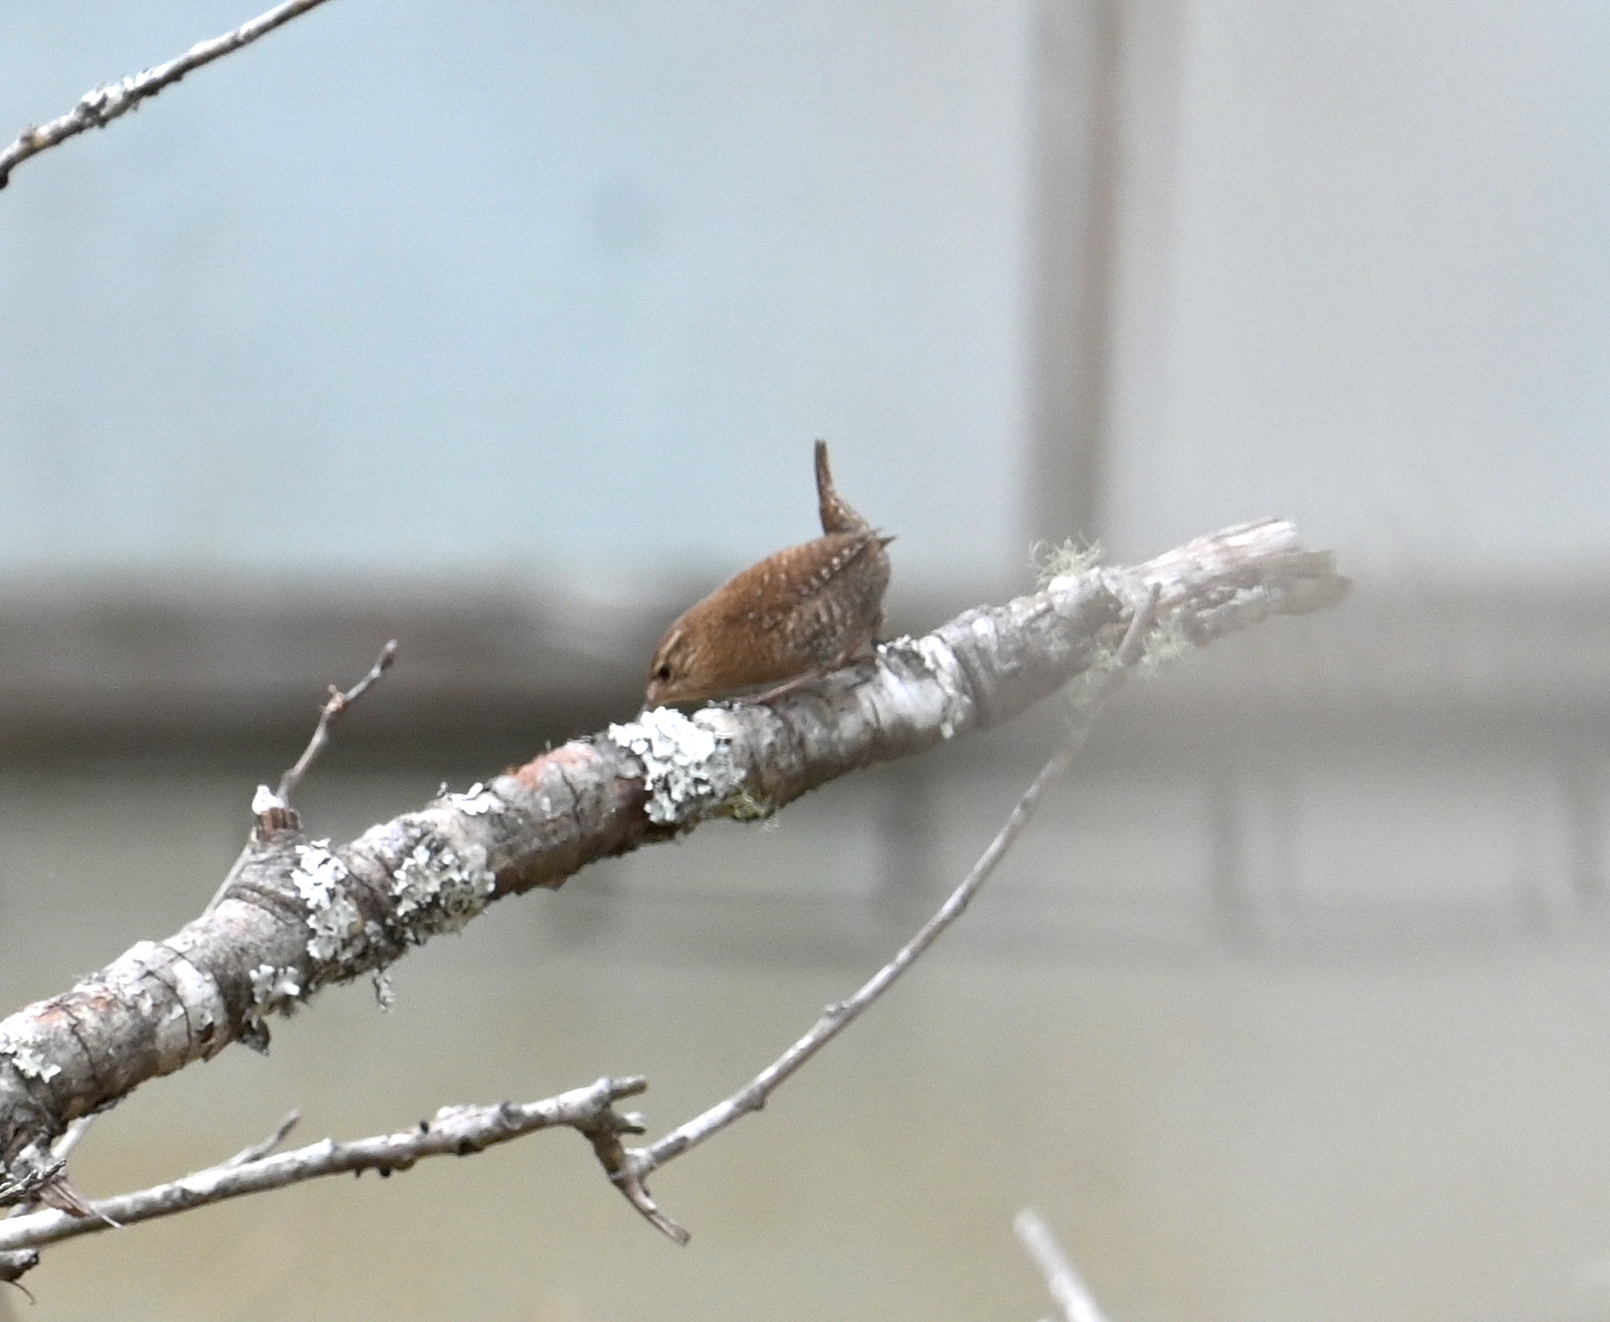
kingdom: Animalia
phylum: Chordata
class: Aves
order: Passeriformes
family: Troglodytidae
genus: Troglodytes
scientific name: Troglodytes hiemalis
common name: Winter wren
